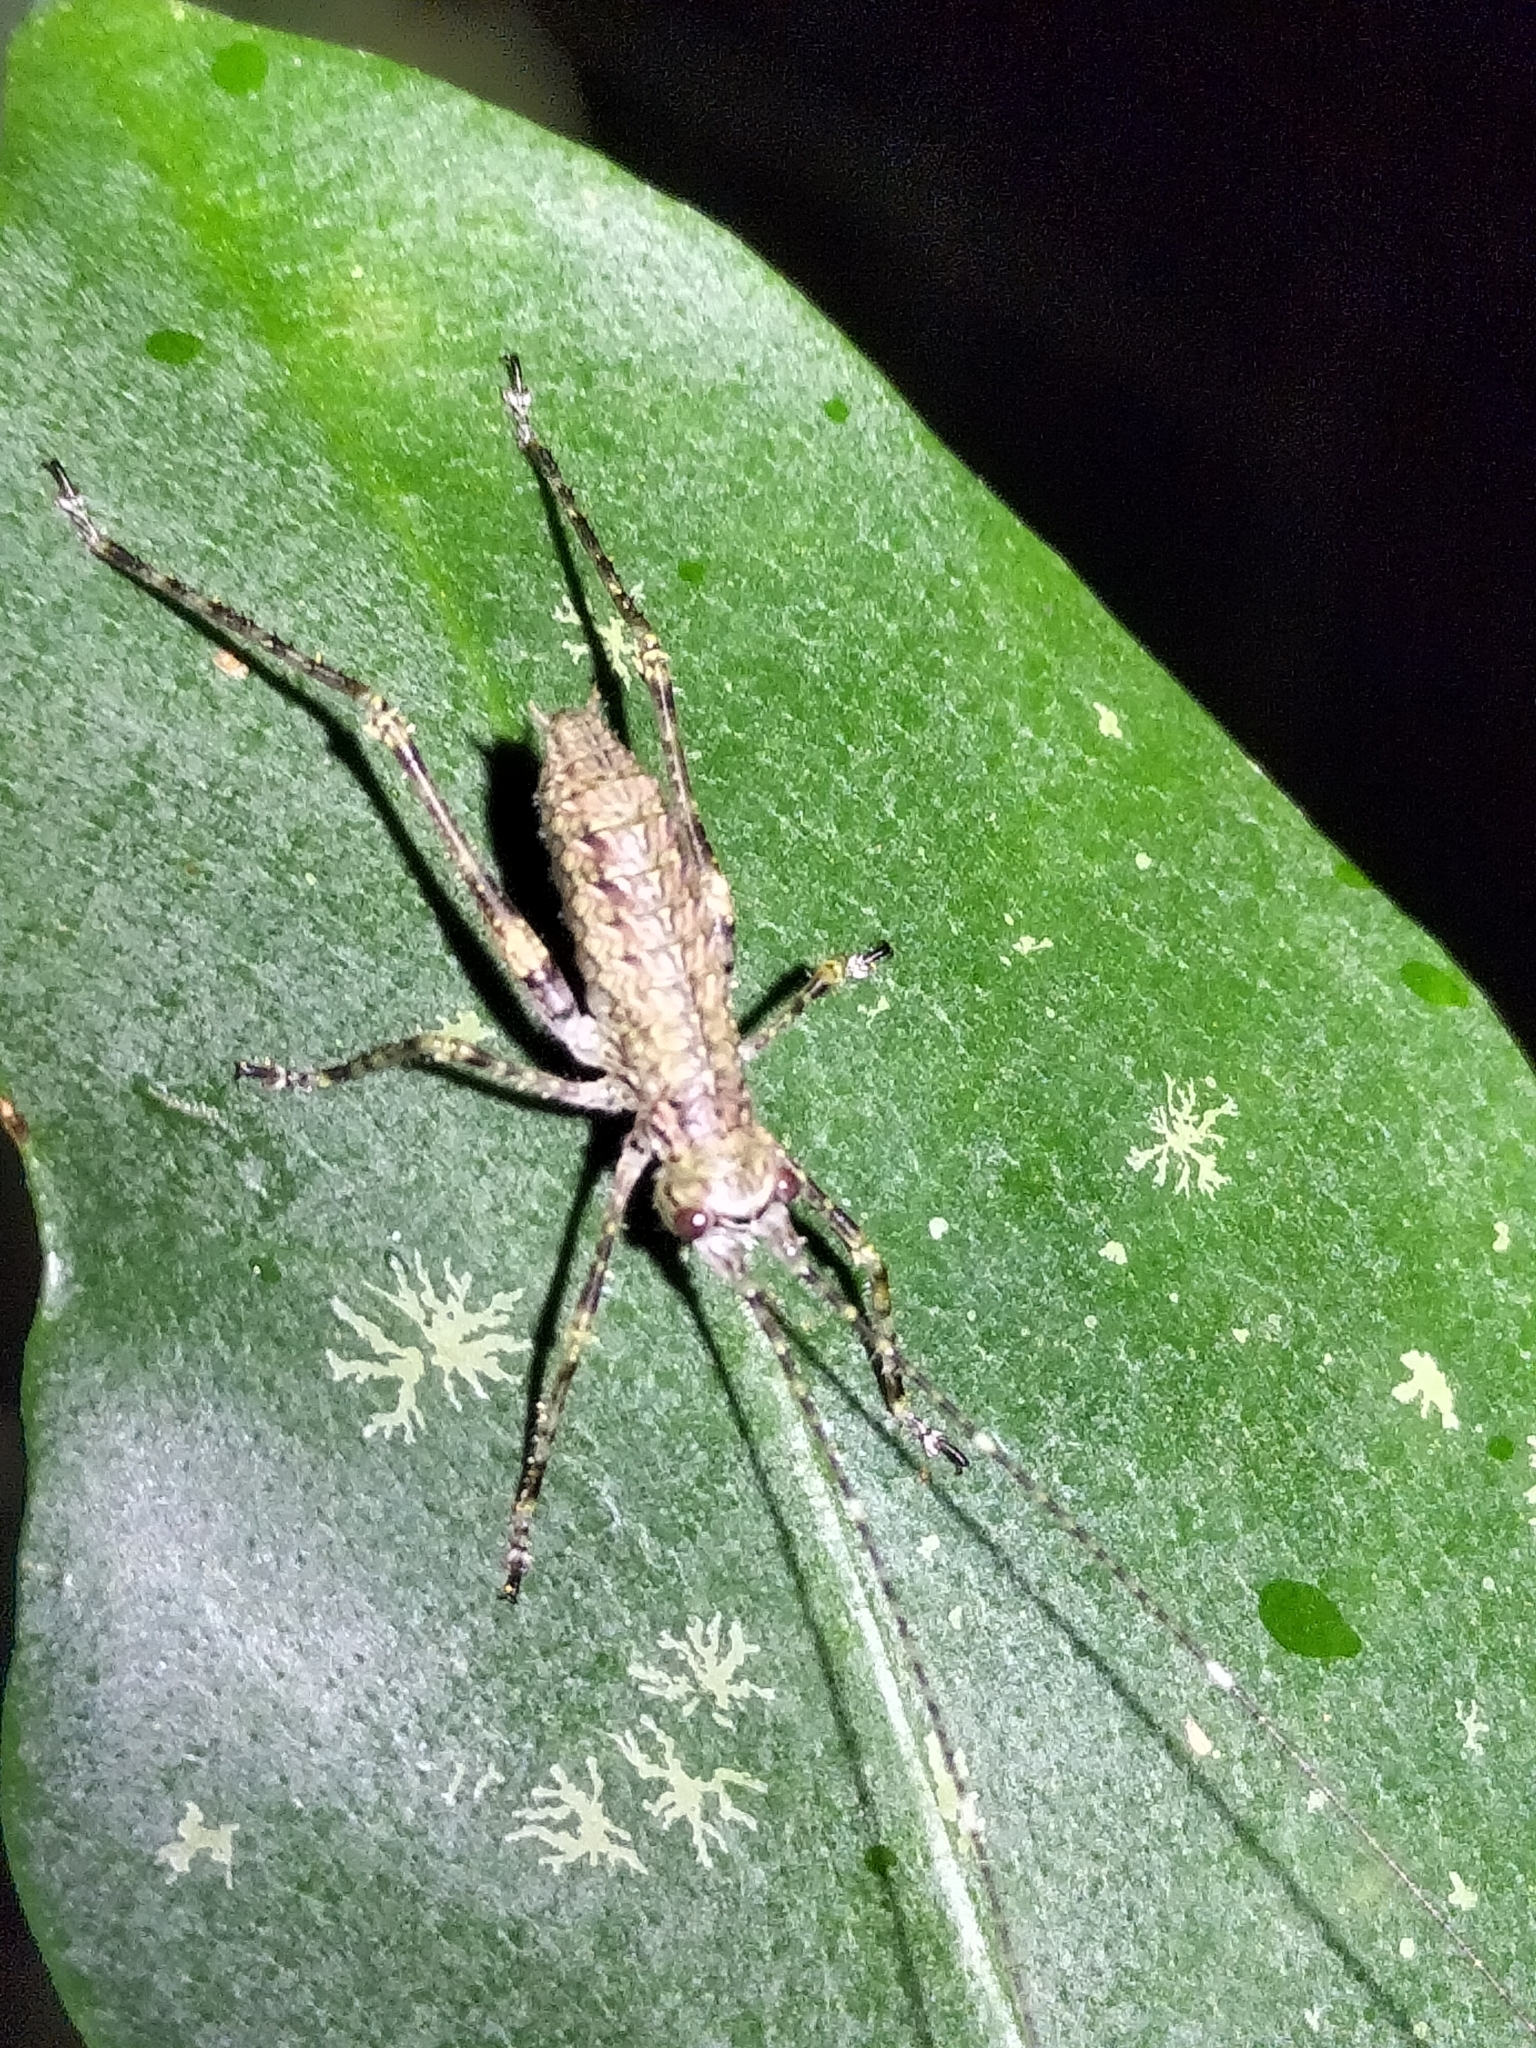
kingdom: Animalia
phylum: Arthropoda
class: Insecta
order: Orthoptera
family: Tettigoniidae
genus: Phricta
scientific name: Phricta spinosa
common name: Giant spiny forest katydid
